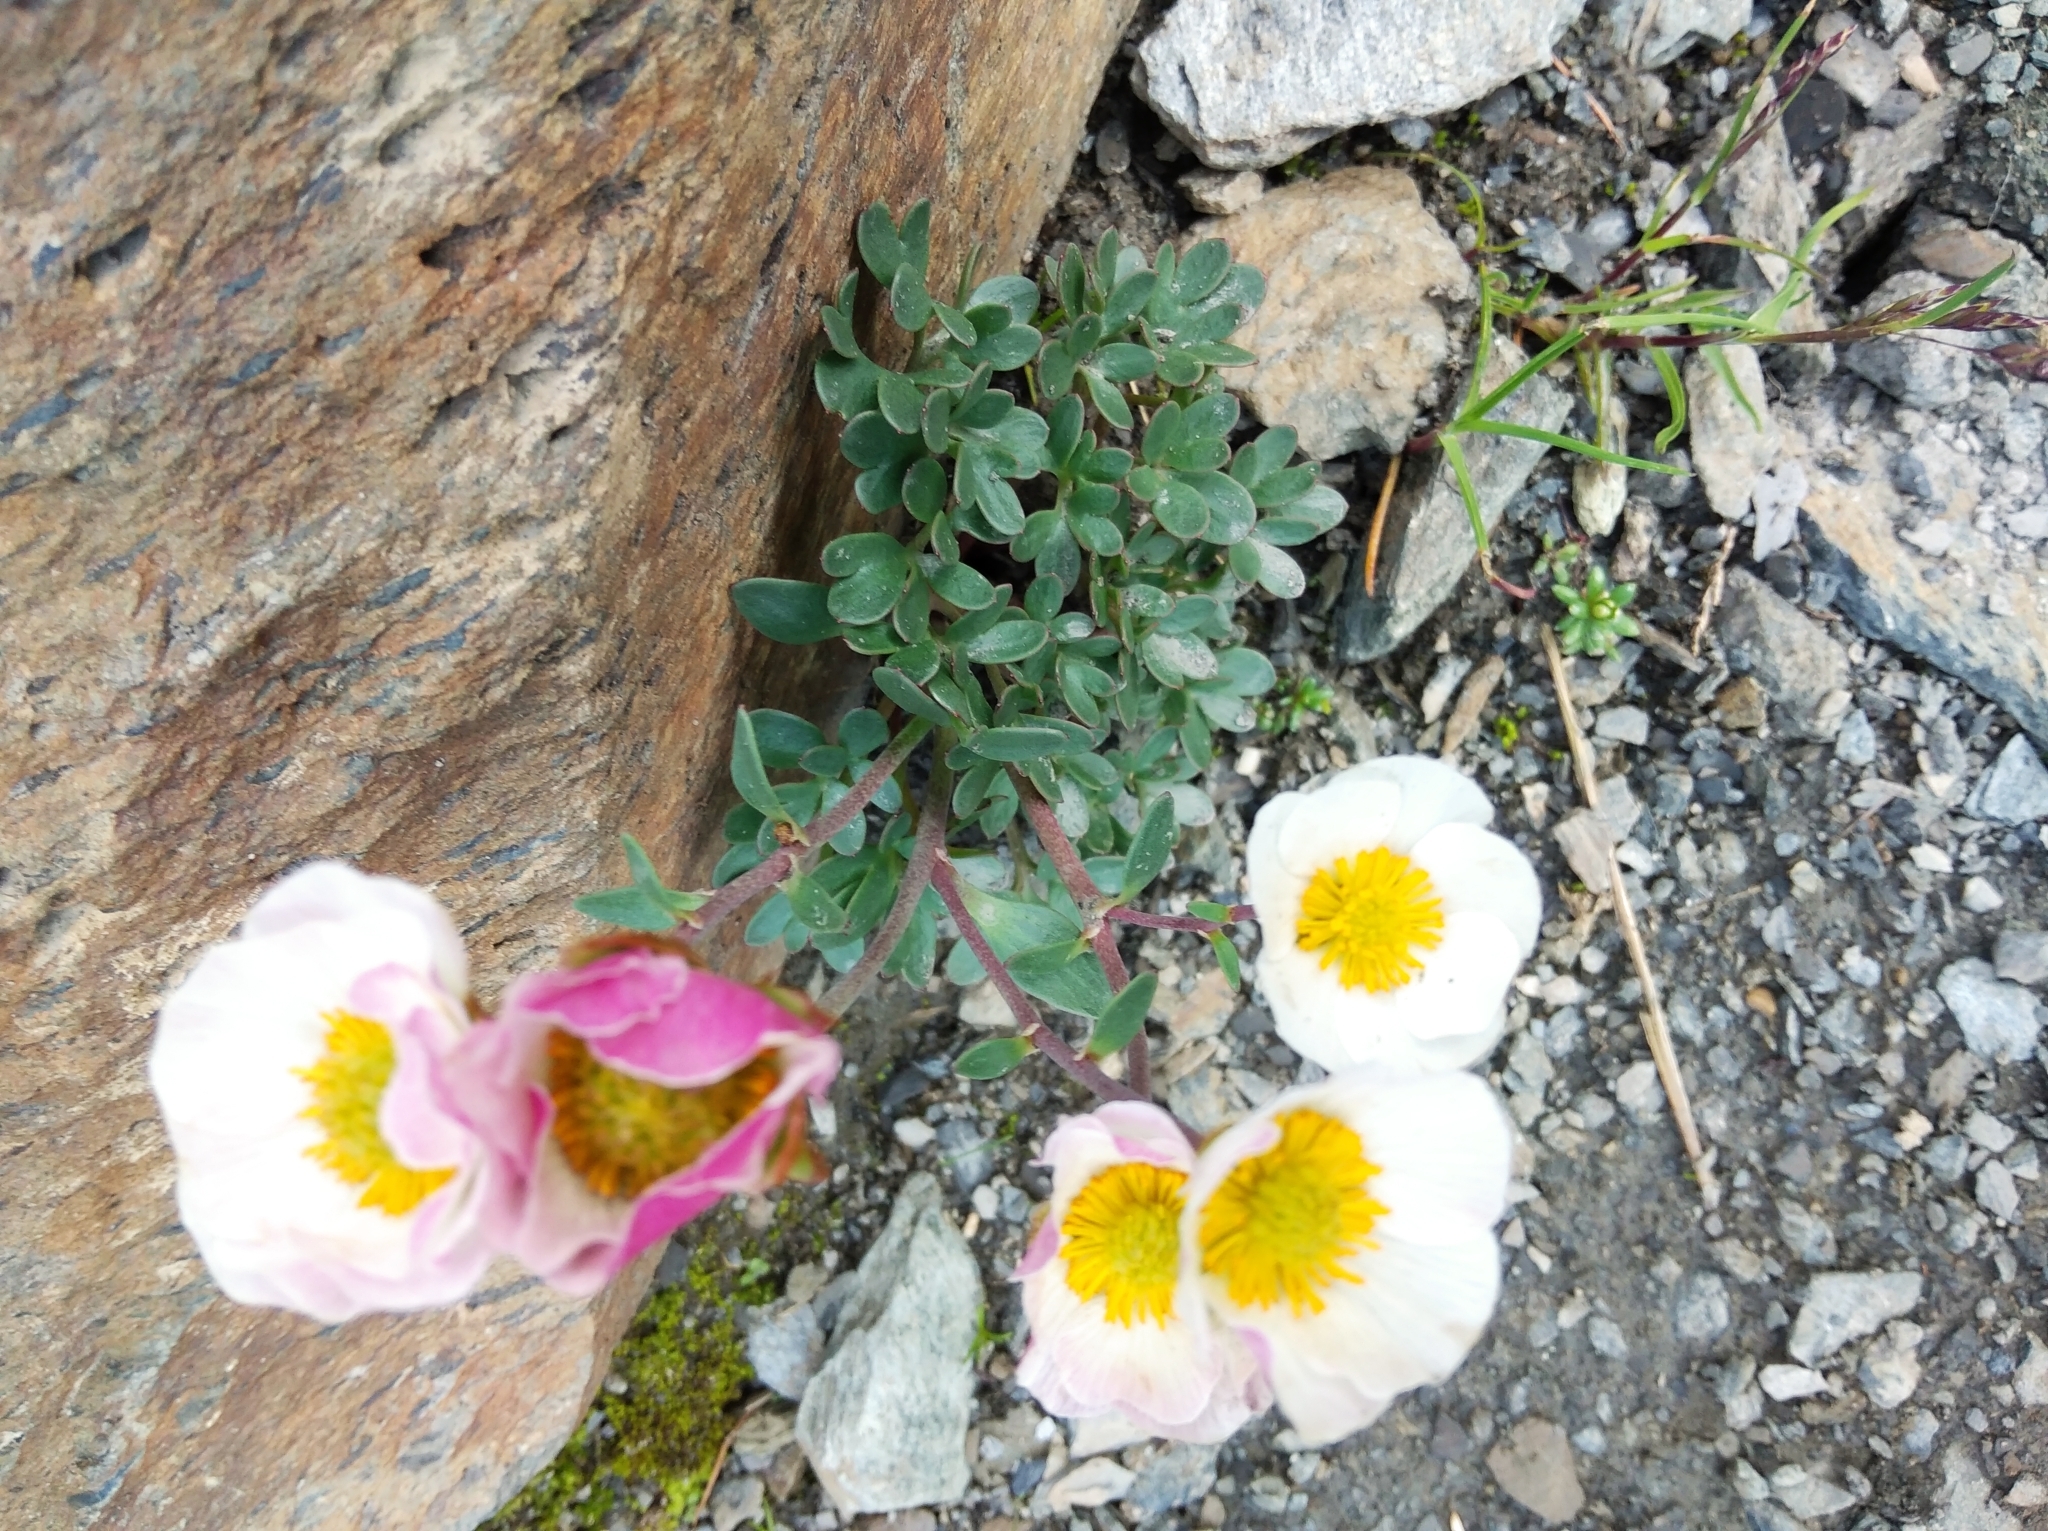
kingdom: Plantae
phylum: Tracheophyta
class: Magnoliopsida
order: Ranunculales
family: Ranunculaceae
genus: Ranunculus
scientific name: Ranunculus glacialis
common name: Glacier buttercup
